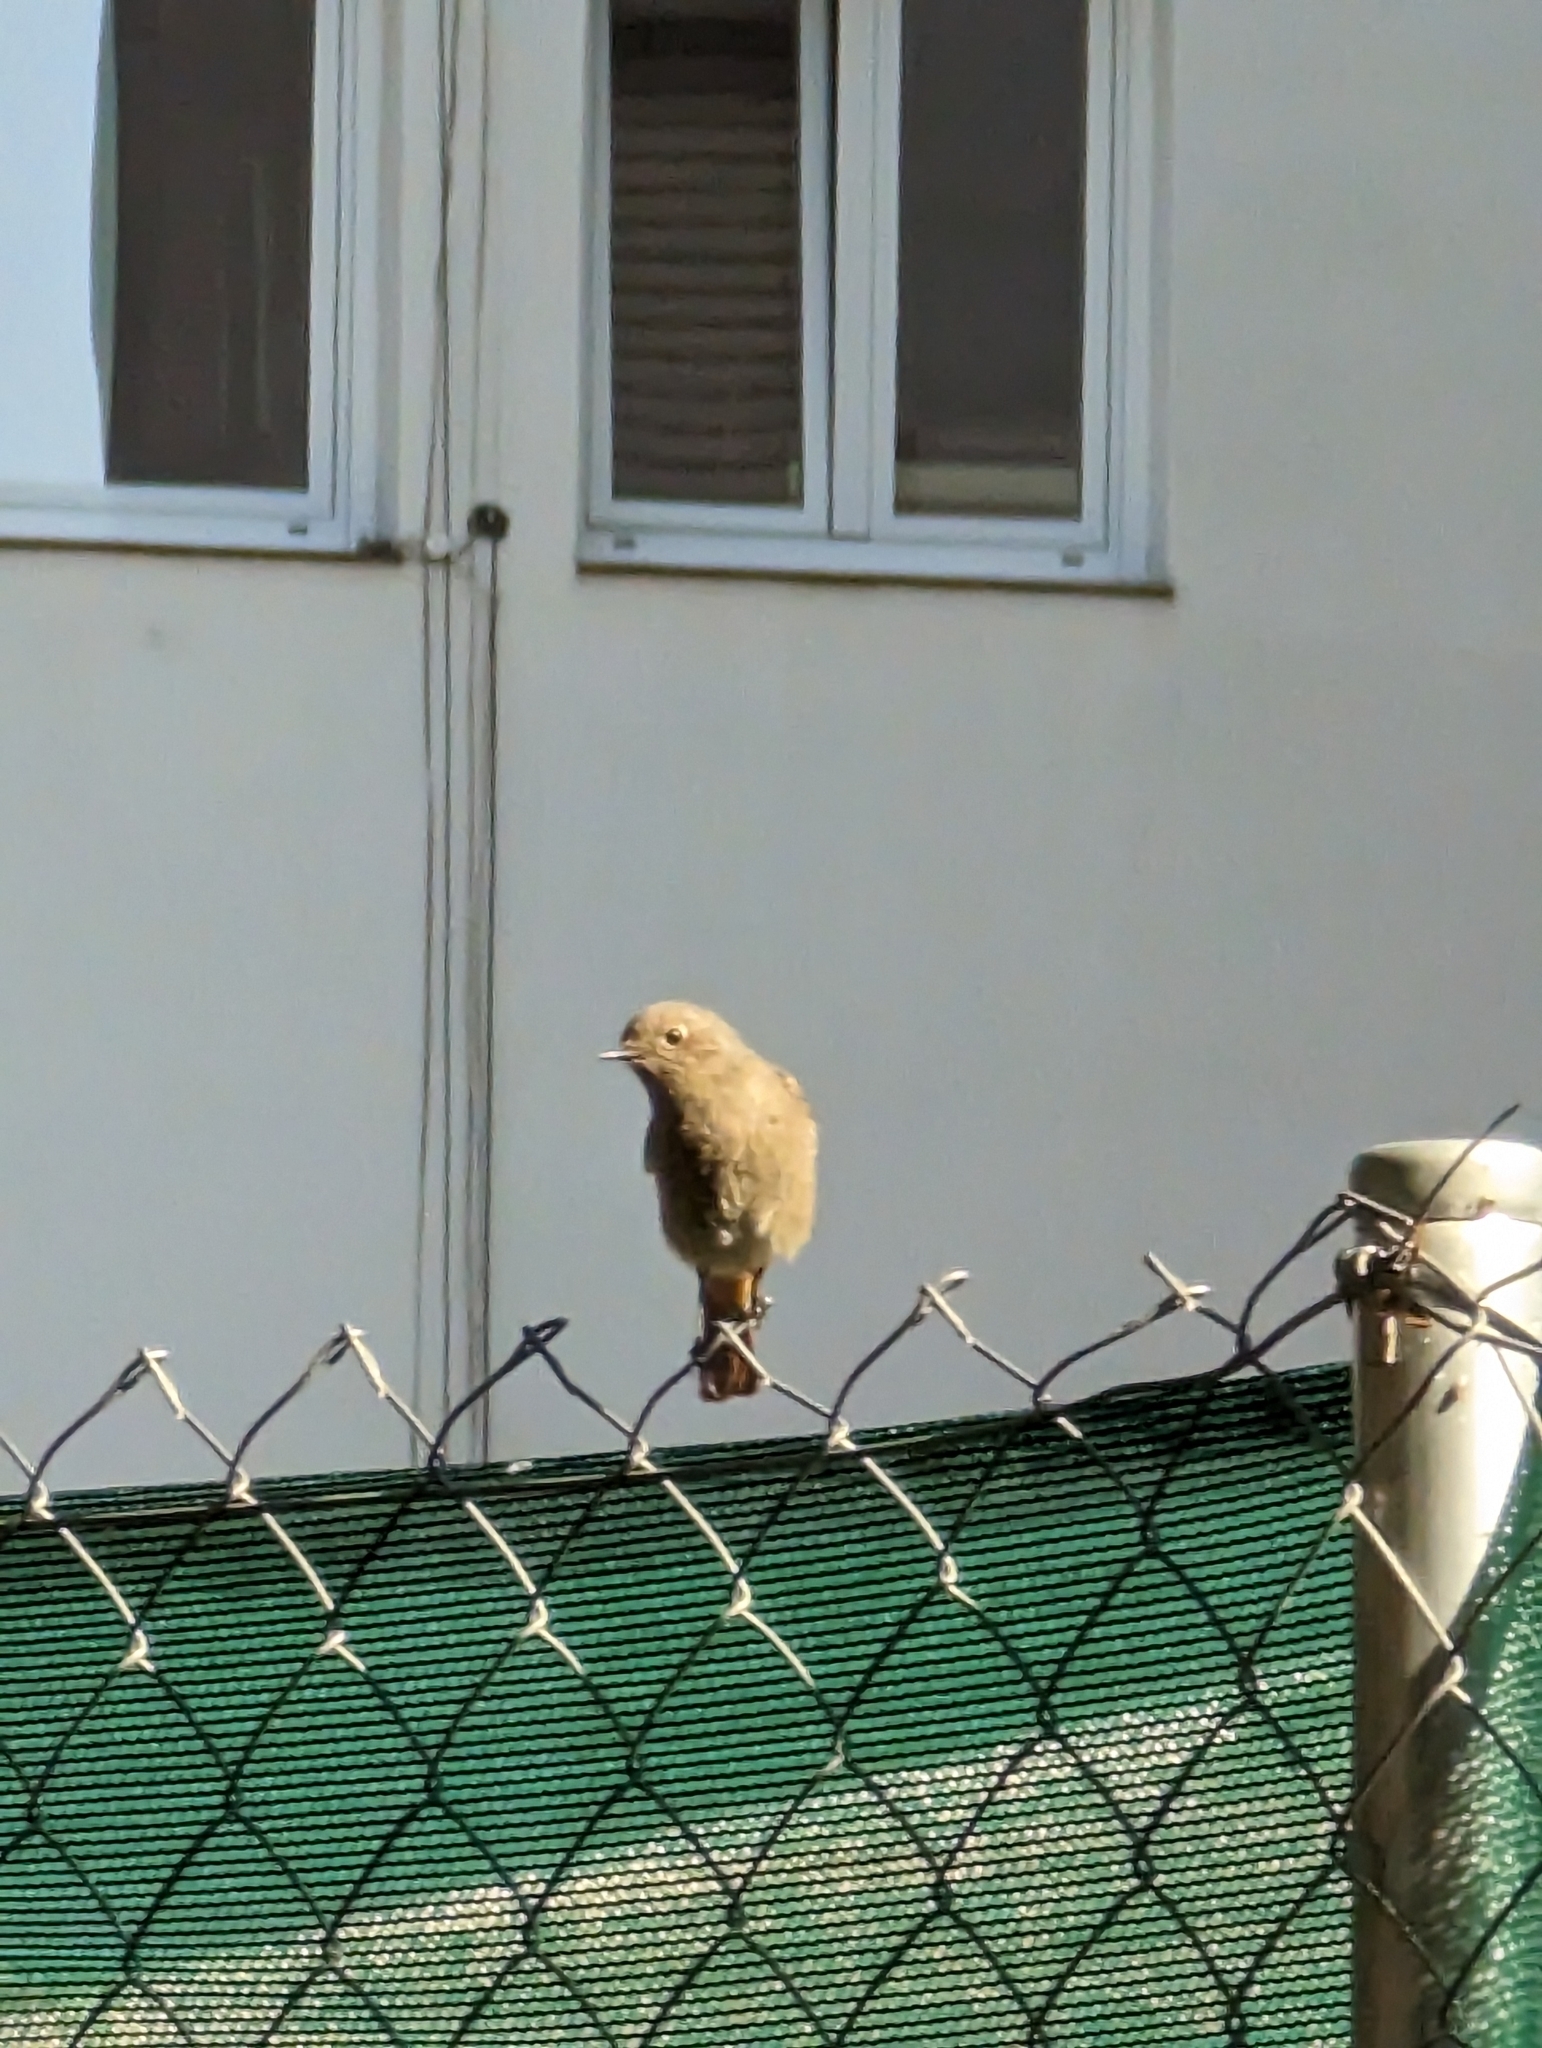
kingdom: Animalia
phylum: Chordata
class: Aves
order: Passeriformes
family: Muscicapidae
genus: Phoenicurus
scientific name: Phoenicurus ochruros
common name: Black redstart
